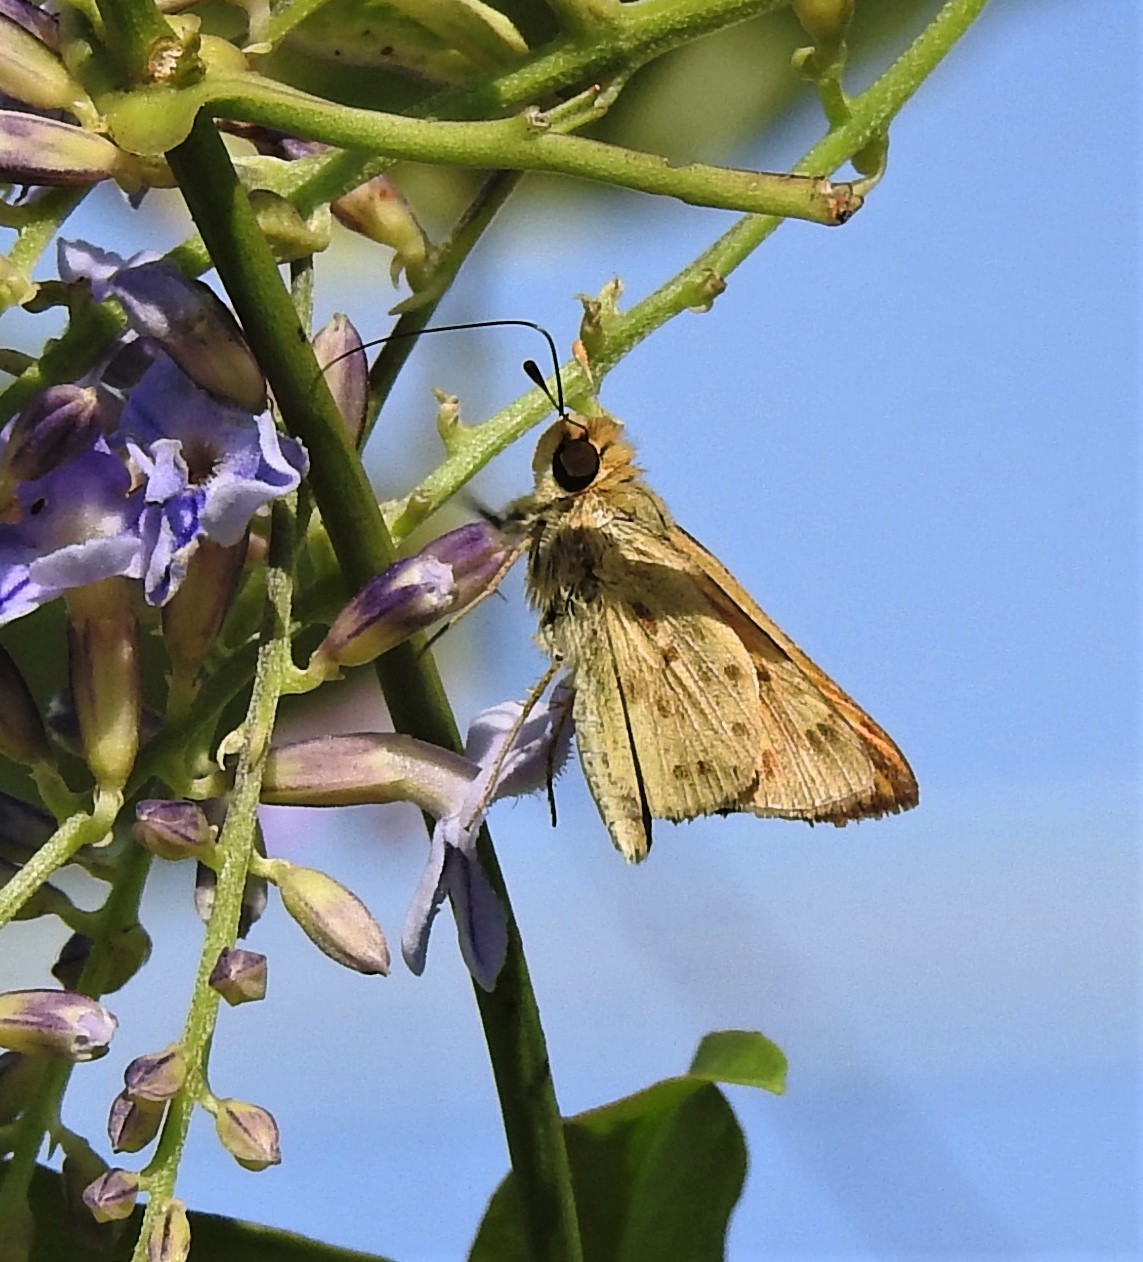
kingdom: Animalia
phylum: Arthropoda
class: Insecta
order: Lepidoptera
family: Hesperiidae
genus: Hylephila
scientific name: Hylephila phyleus
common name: Fiery skipper
